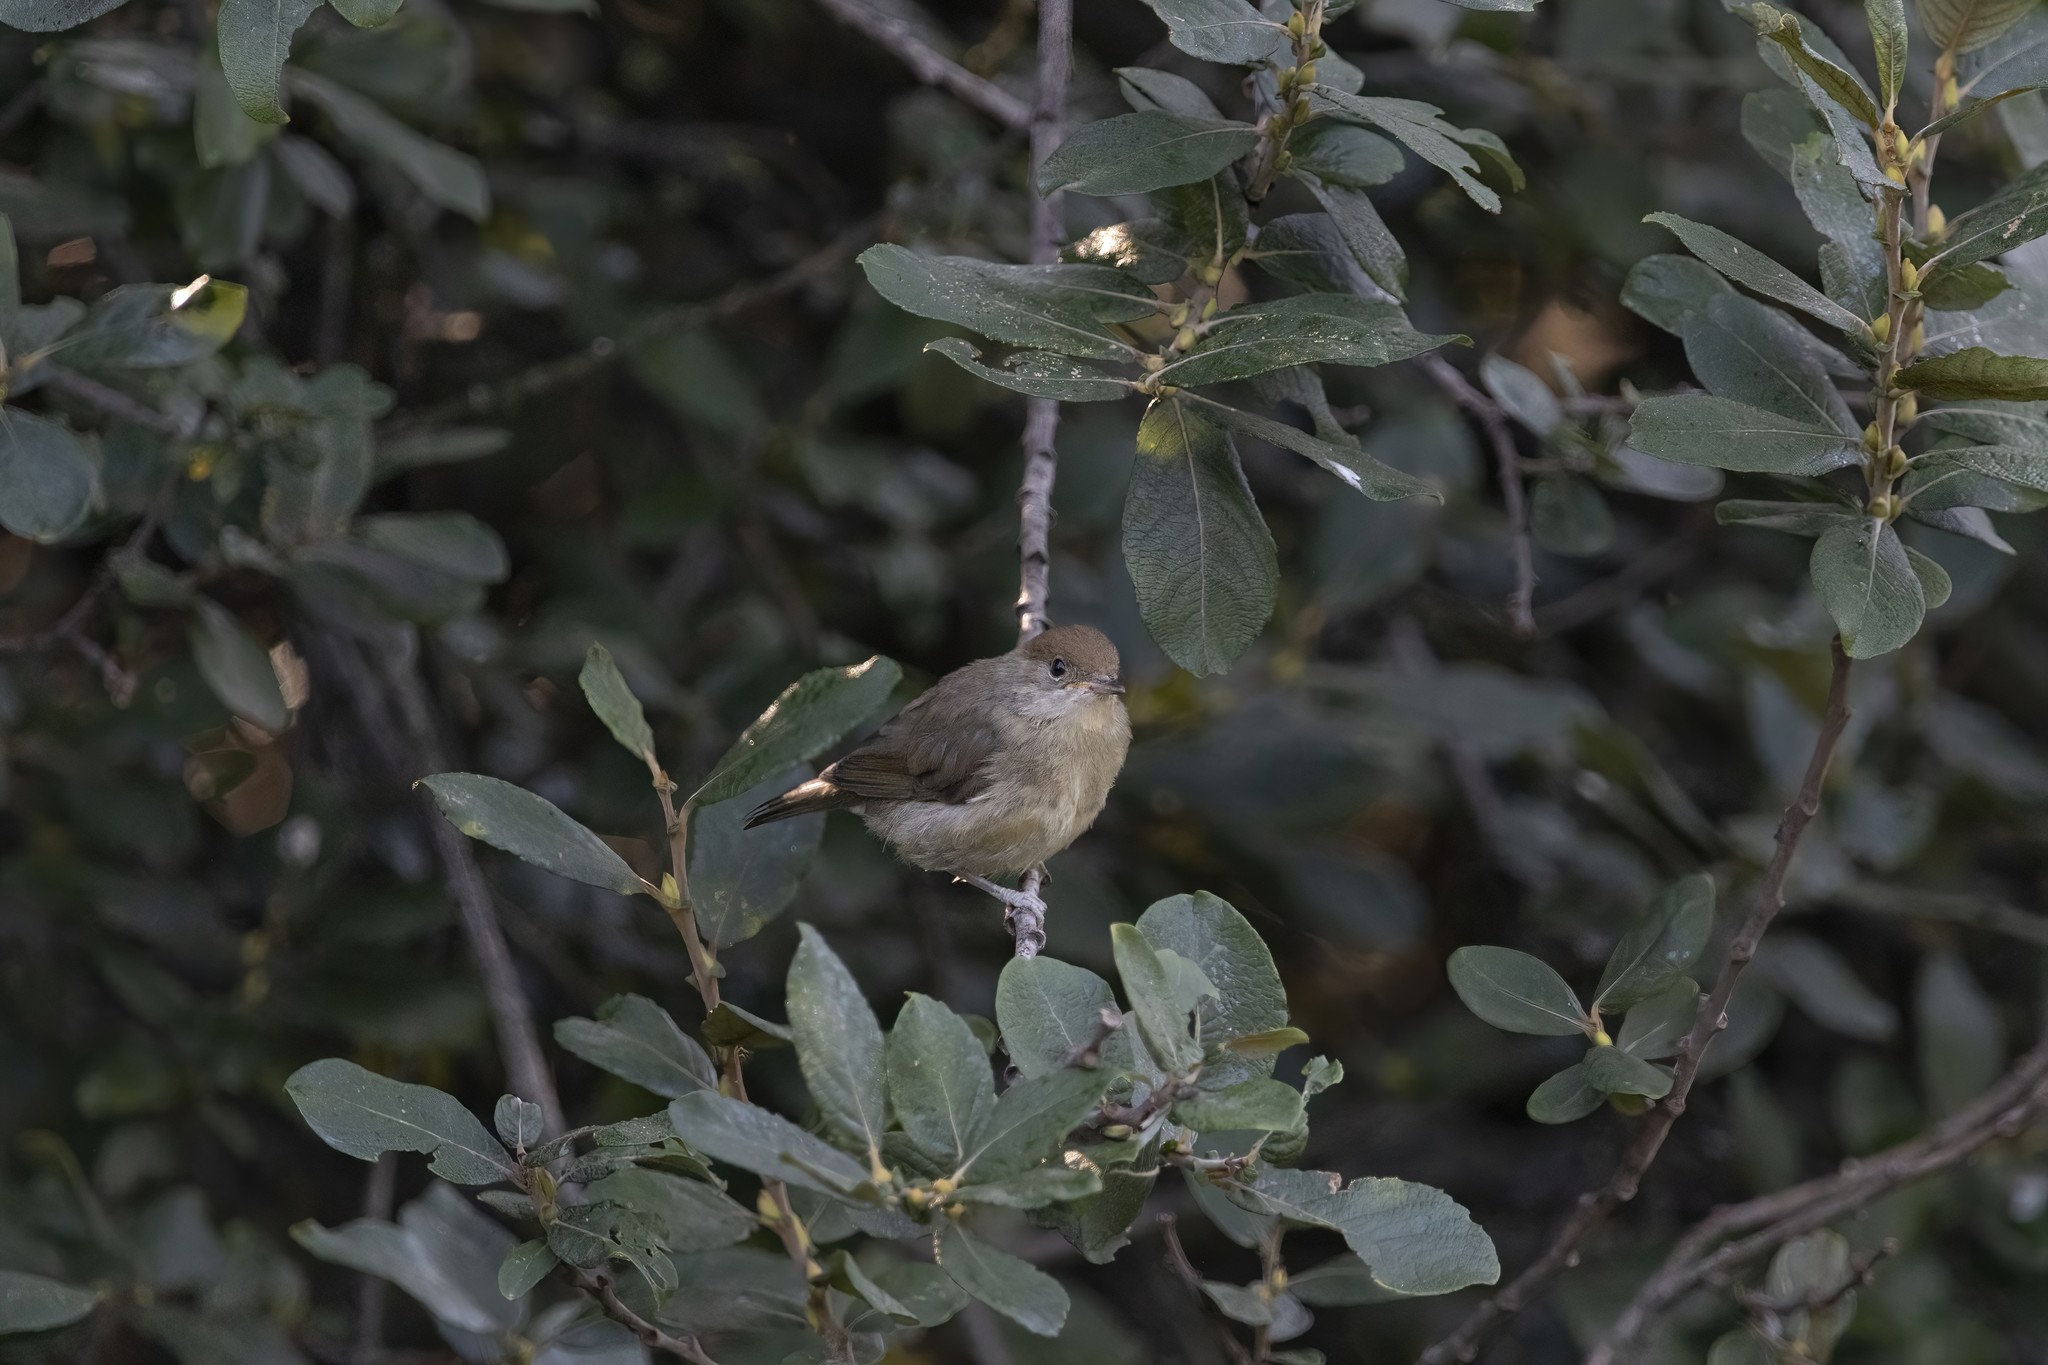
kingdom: Animalia
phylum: Chordata
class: Aves
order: Passeriformes
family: Sylviidae
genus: Sylvia
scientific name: Sylvia atricapilla
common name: Eurasian blackcap
